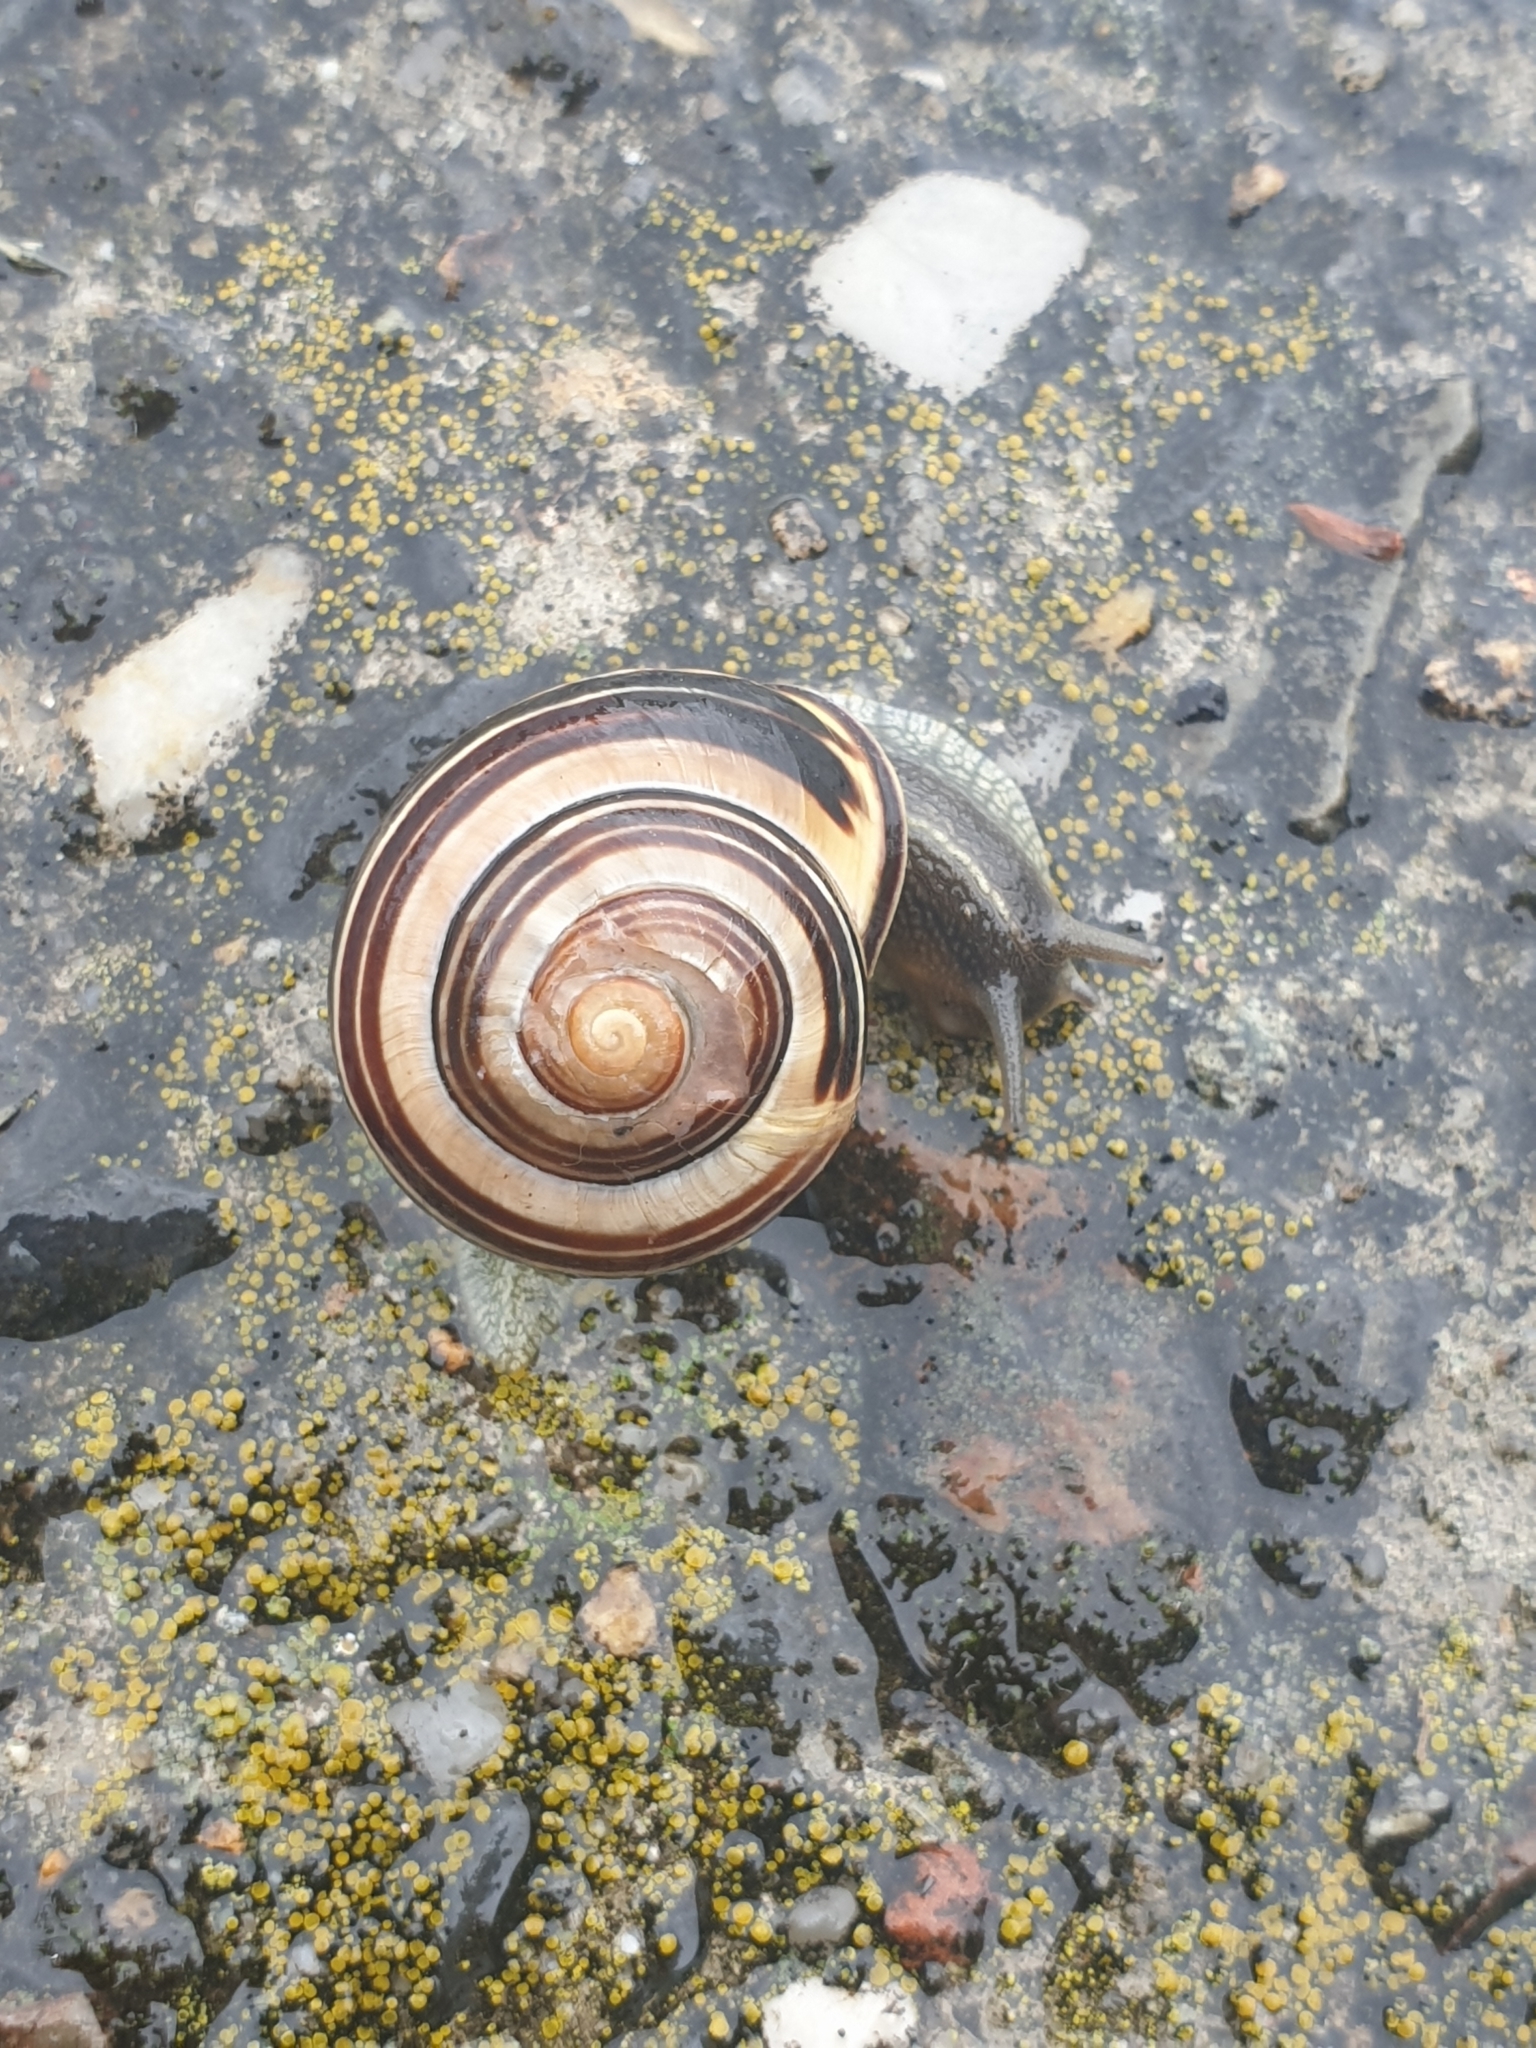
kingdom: Animalia
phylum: Mollusca
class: Gastropoda
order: Stylommatophora
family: Helicidae
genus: Cepaea
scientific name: Cepaea nemoralis
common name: Grovesnail
